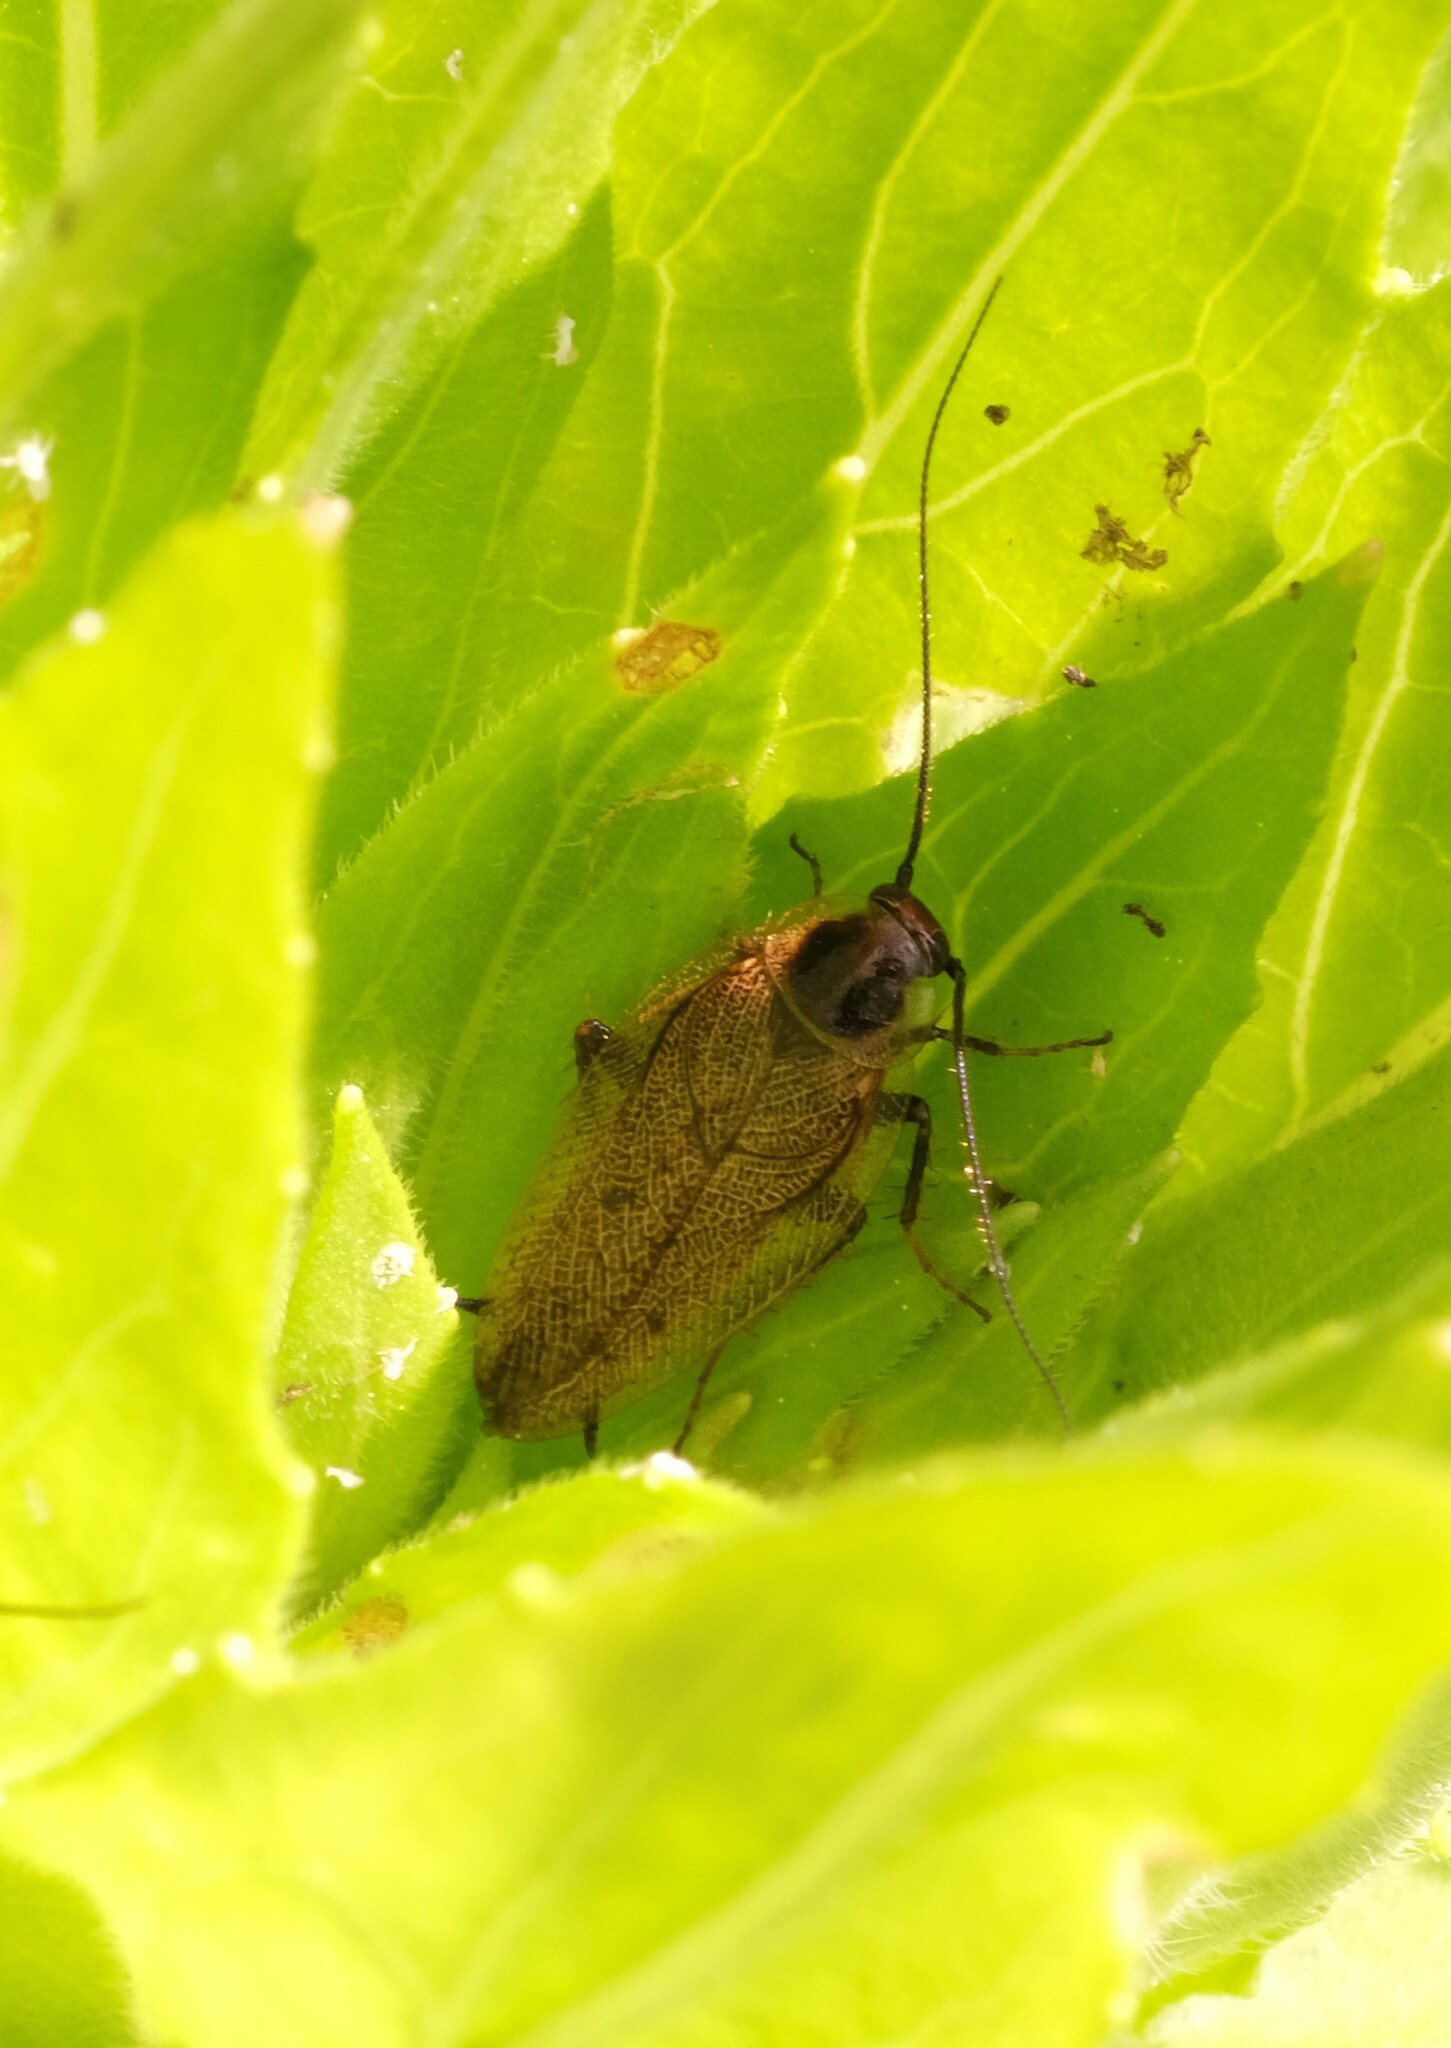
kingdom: Animalia
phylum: Arthropoda
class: Insecta
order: Blattodea
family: Ectobiidae
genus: Ectobius
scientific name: Ectobius lapponicus
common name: Dusky cockroach
